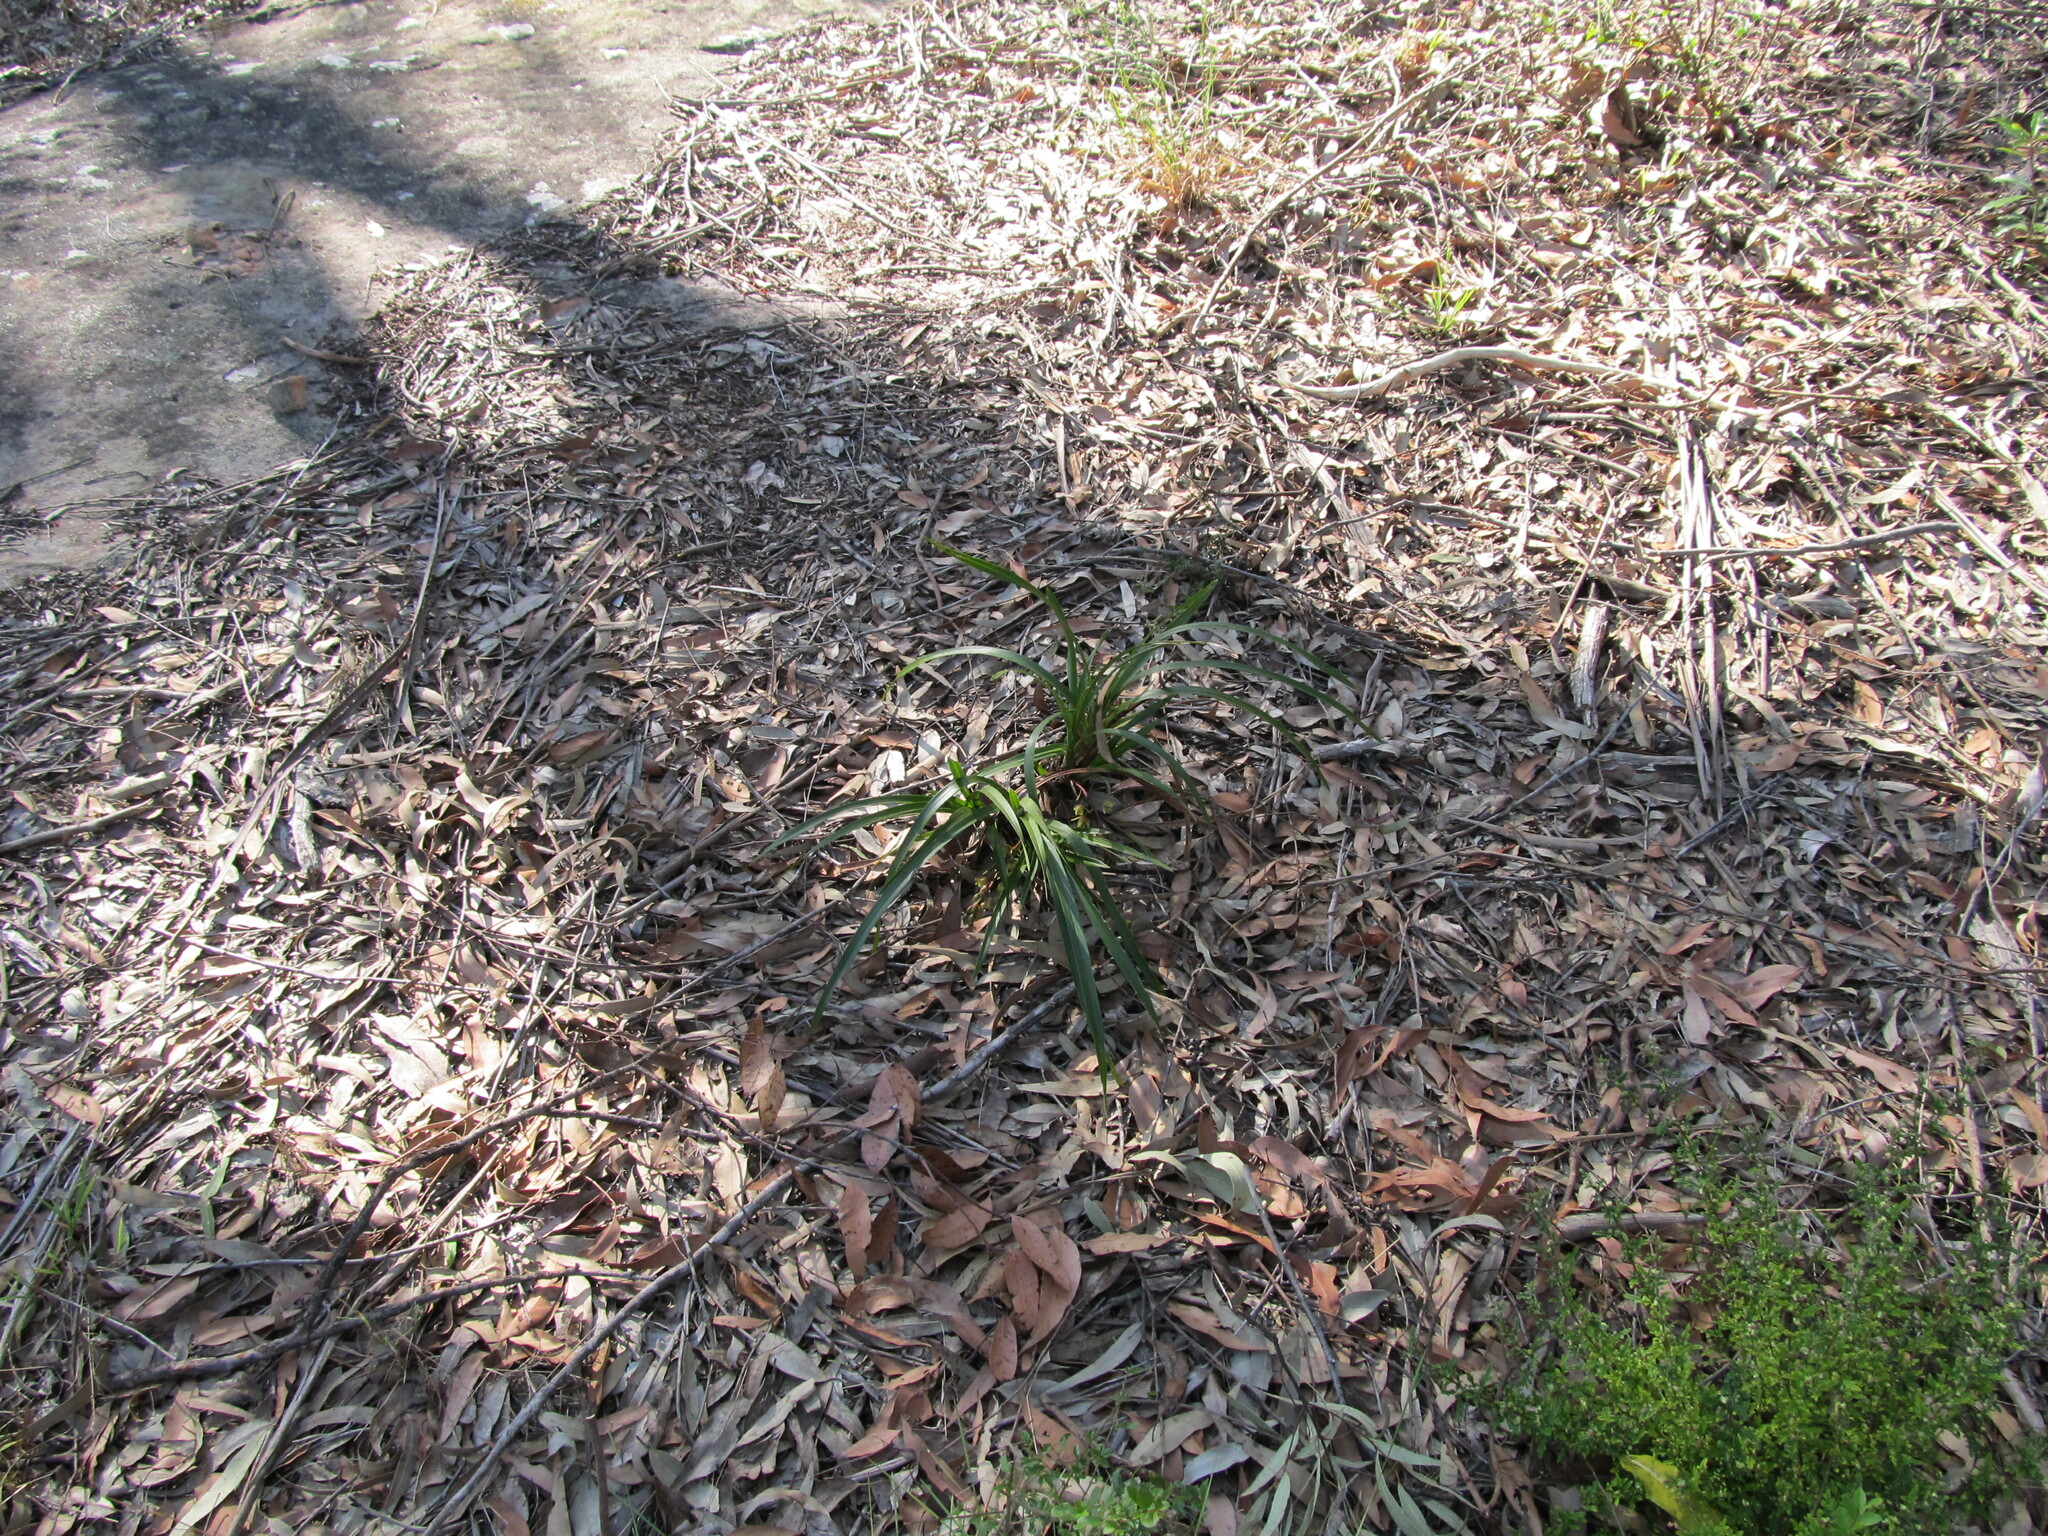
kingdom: Plantae
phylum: Tracheophyta
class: Liliopsida
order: Asparagales
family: Orchidaceae
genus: Cymbidium
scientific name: Cymbidium suave
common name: Snake orchid
